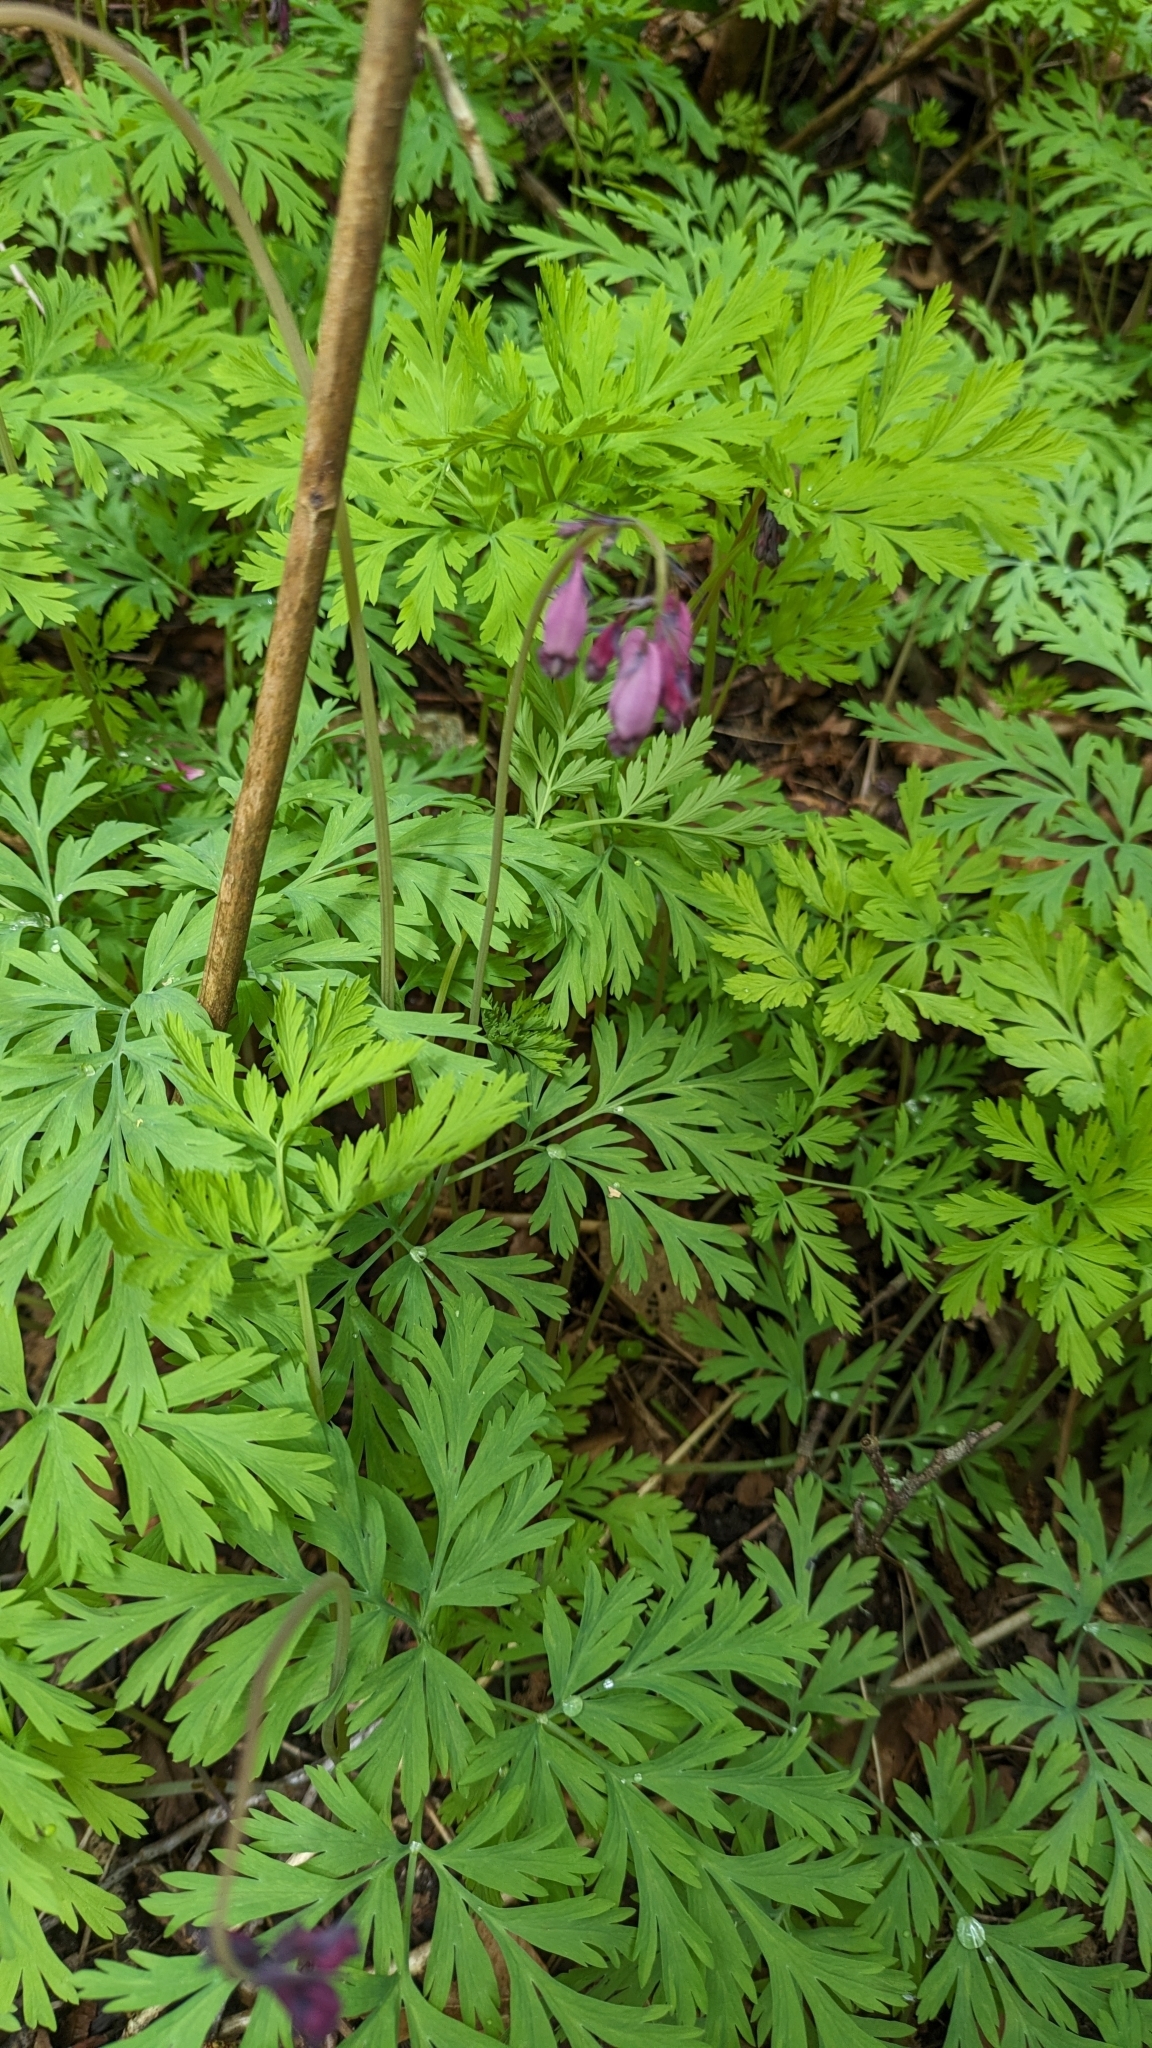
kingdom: Plantae
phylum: Tracheophyta
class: Magnoliopsida
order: Ranunculales
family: Papaveraceae
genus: Dicentra
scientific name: Dicentra formosa
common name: Bleeding-heart
